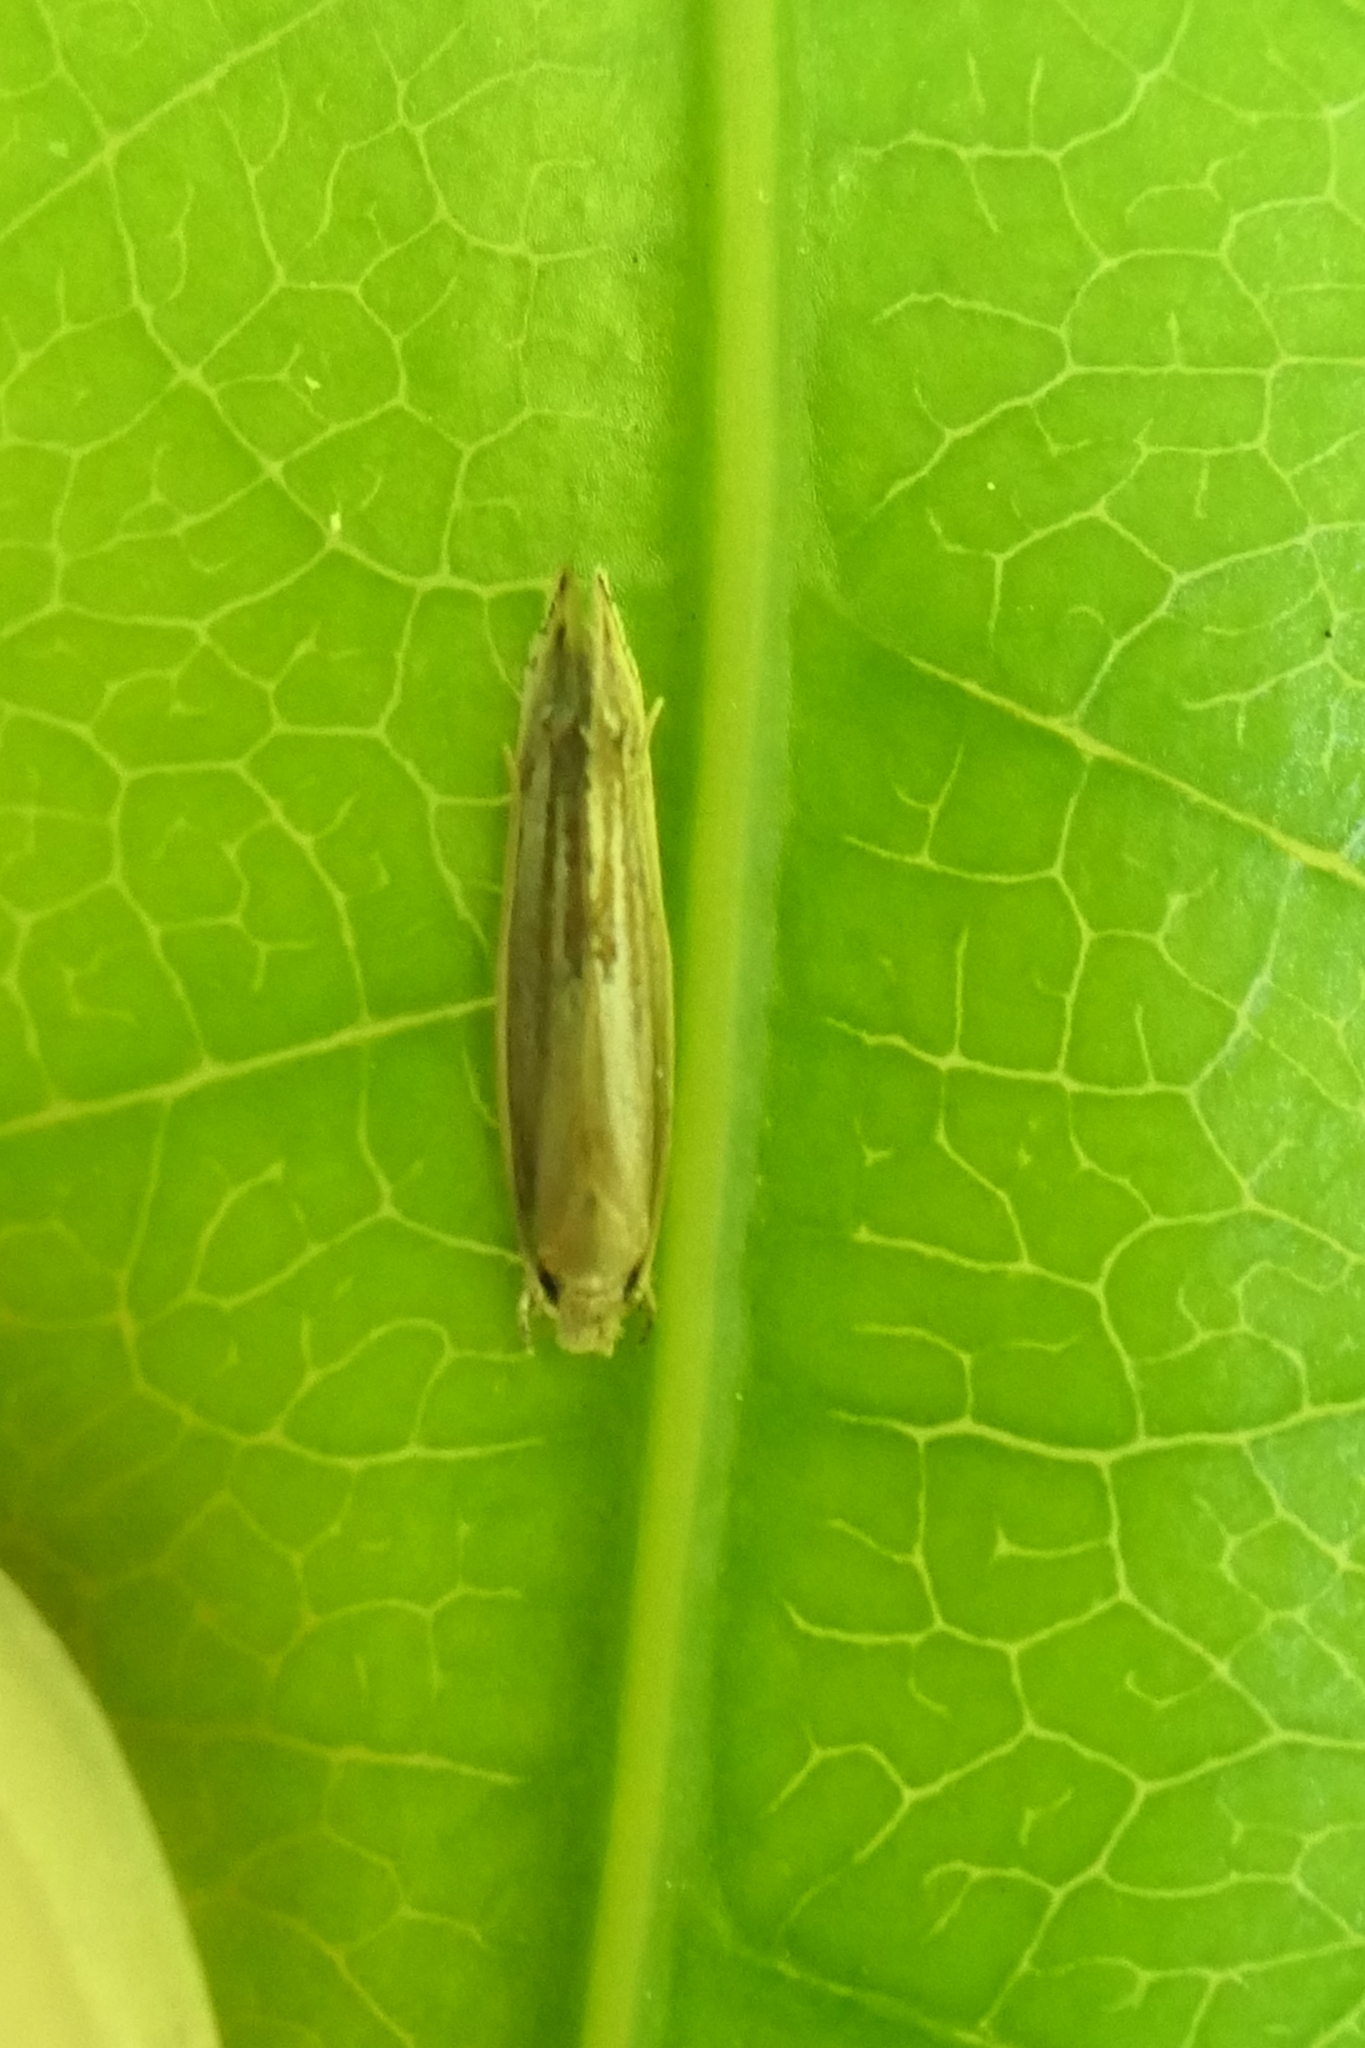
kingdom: Animalia
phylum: Arthropoda
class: Insecta
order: Lepidoptera
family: Tineidae
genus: Amphixystis
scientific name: Amphixystis hapsimacha
